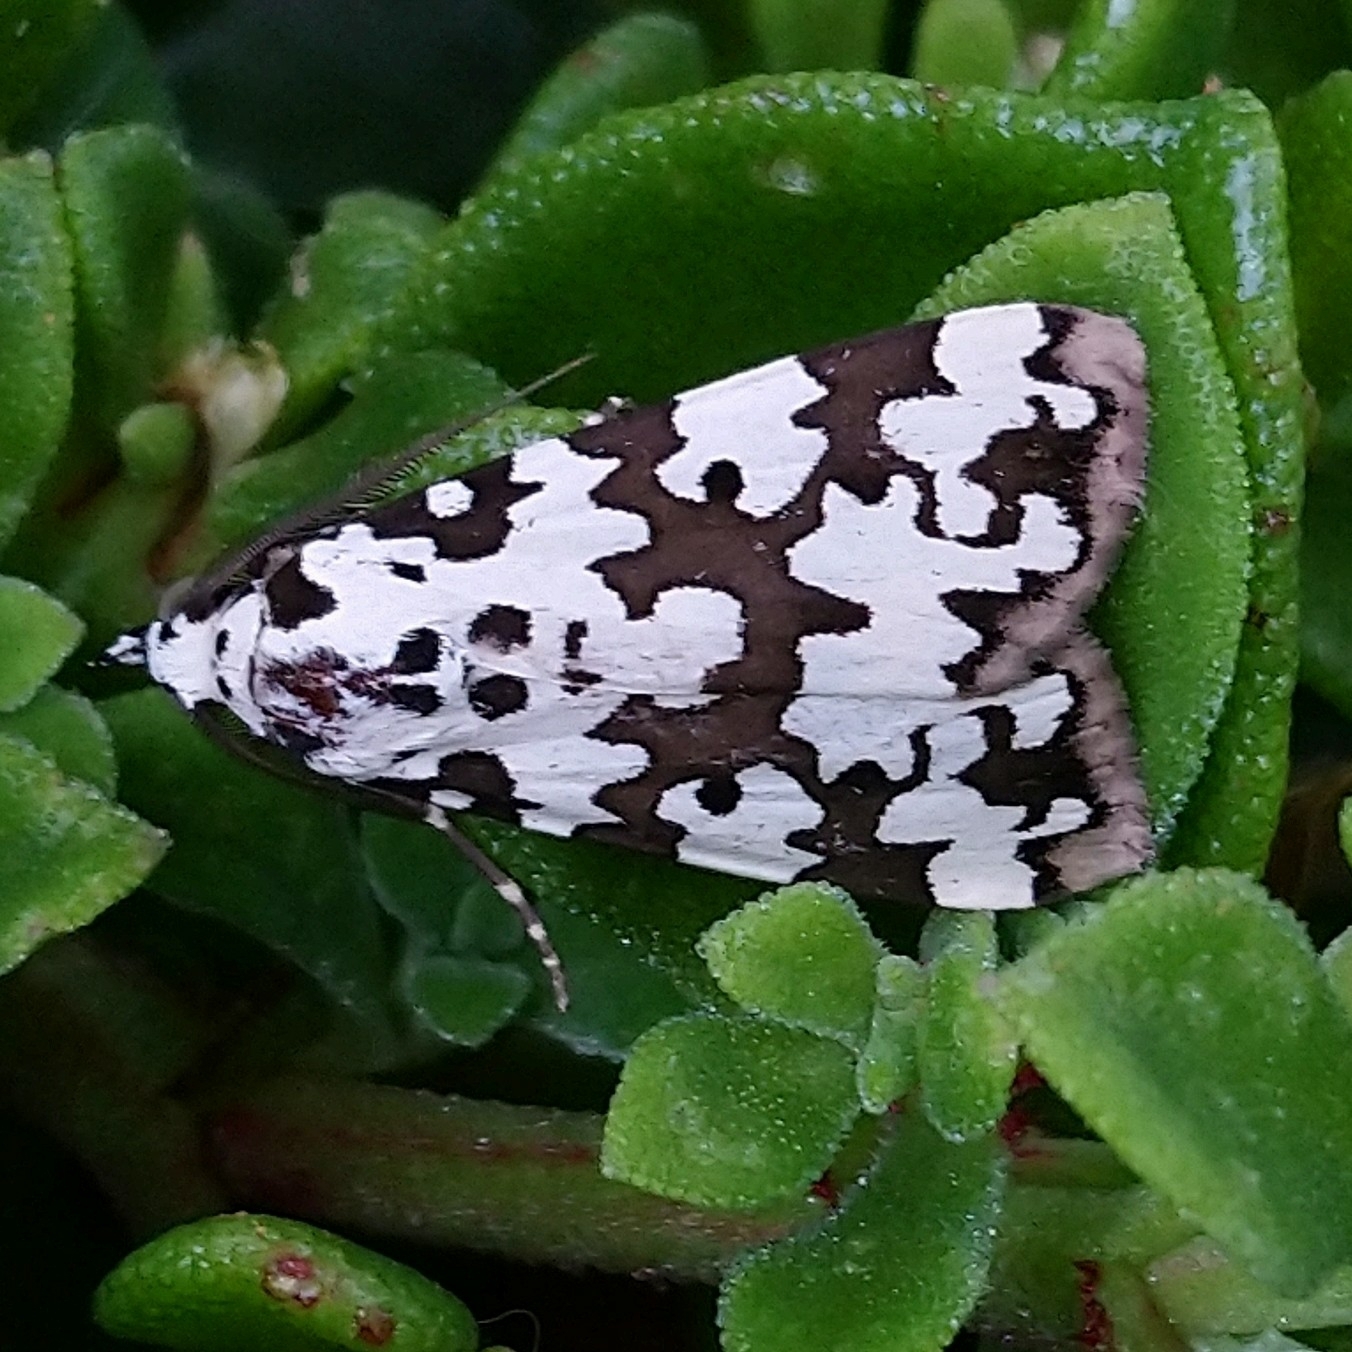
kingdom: Animalia
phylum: Arthropoda
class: Insecta
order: Lepidoptera
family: Erebidae
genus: Digama
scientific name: Digama strabonis
